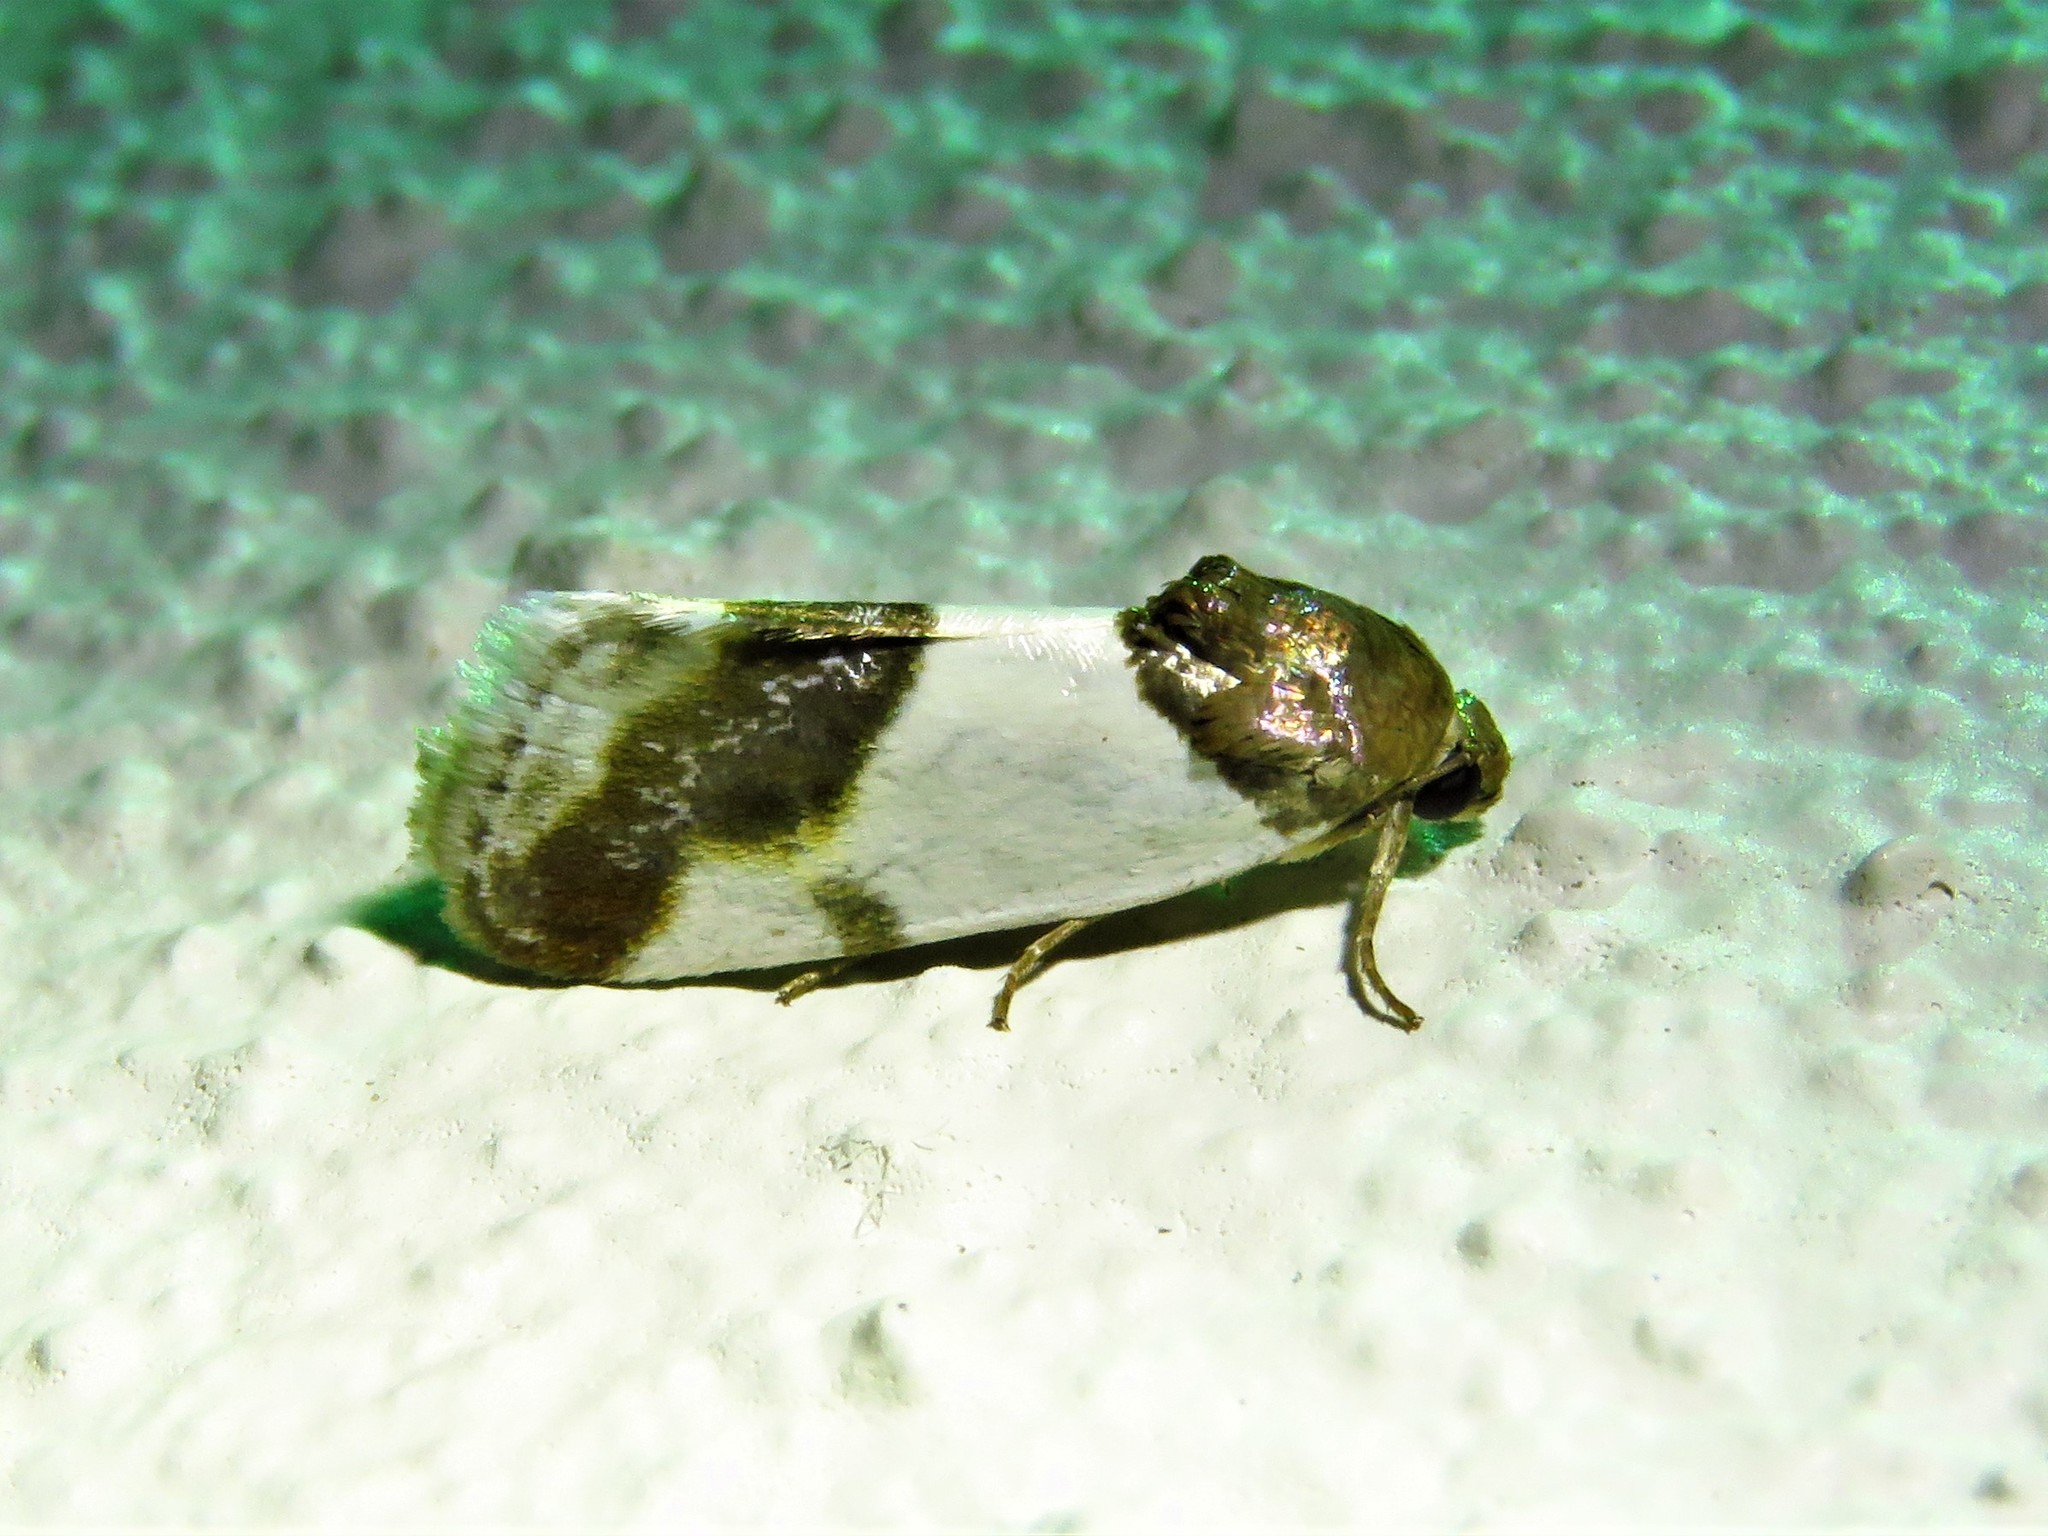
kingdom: Animalia
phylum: Arthropoda
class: Insecta
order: Lepidoptera
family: Noctuidae
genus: Acontia
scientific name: Acontia Tarache lactipennis
